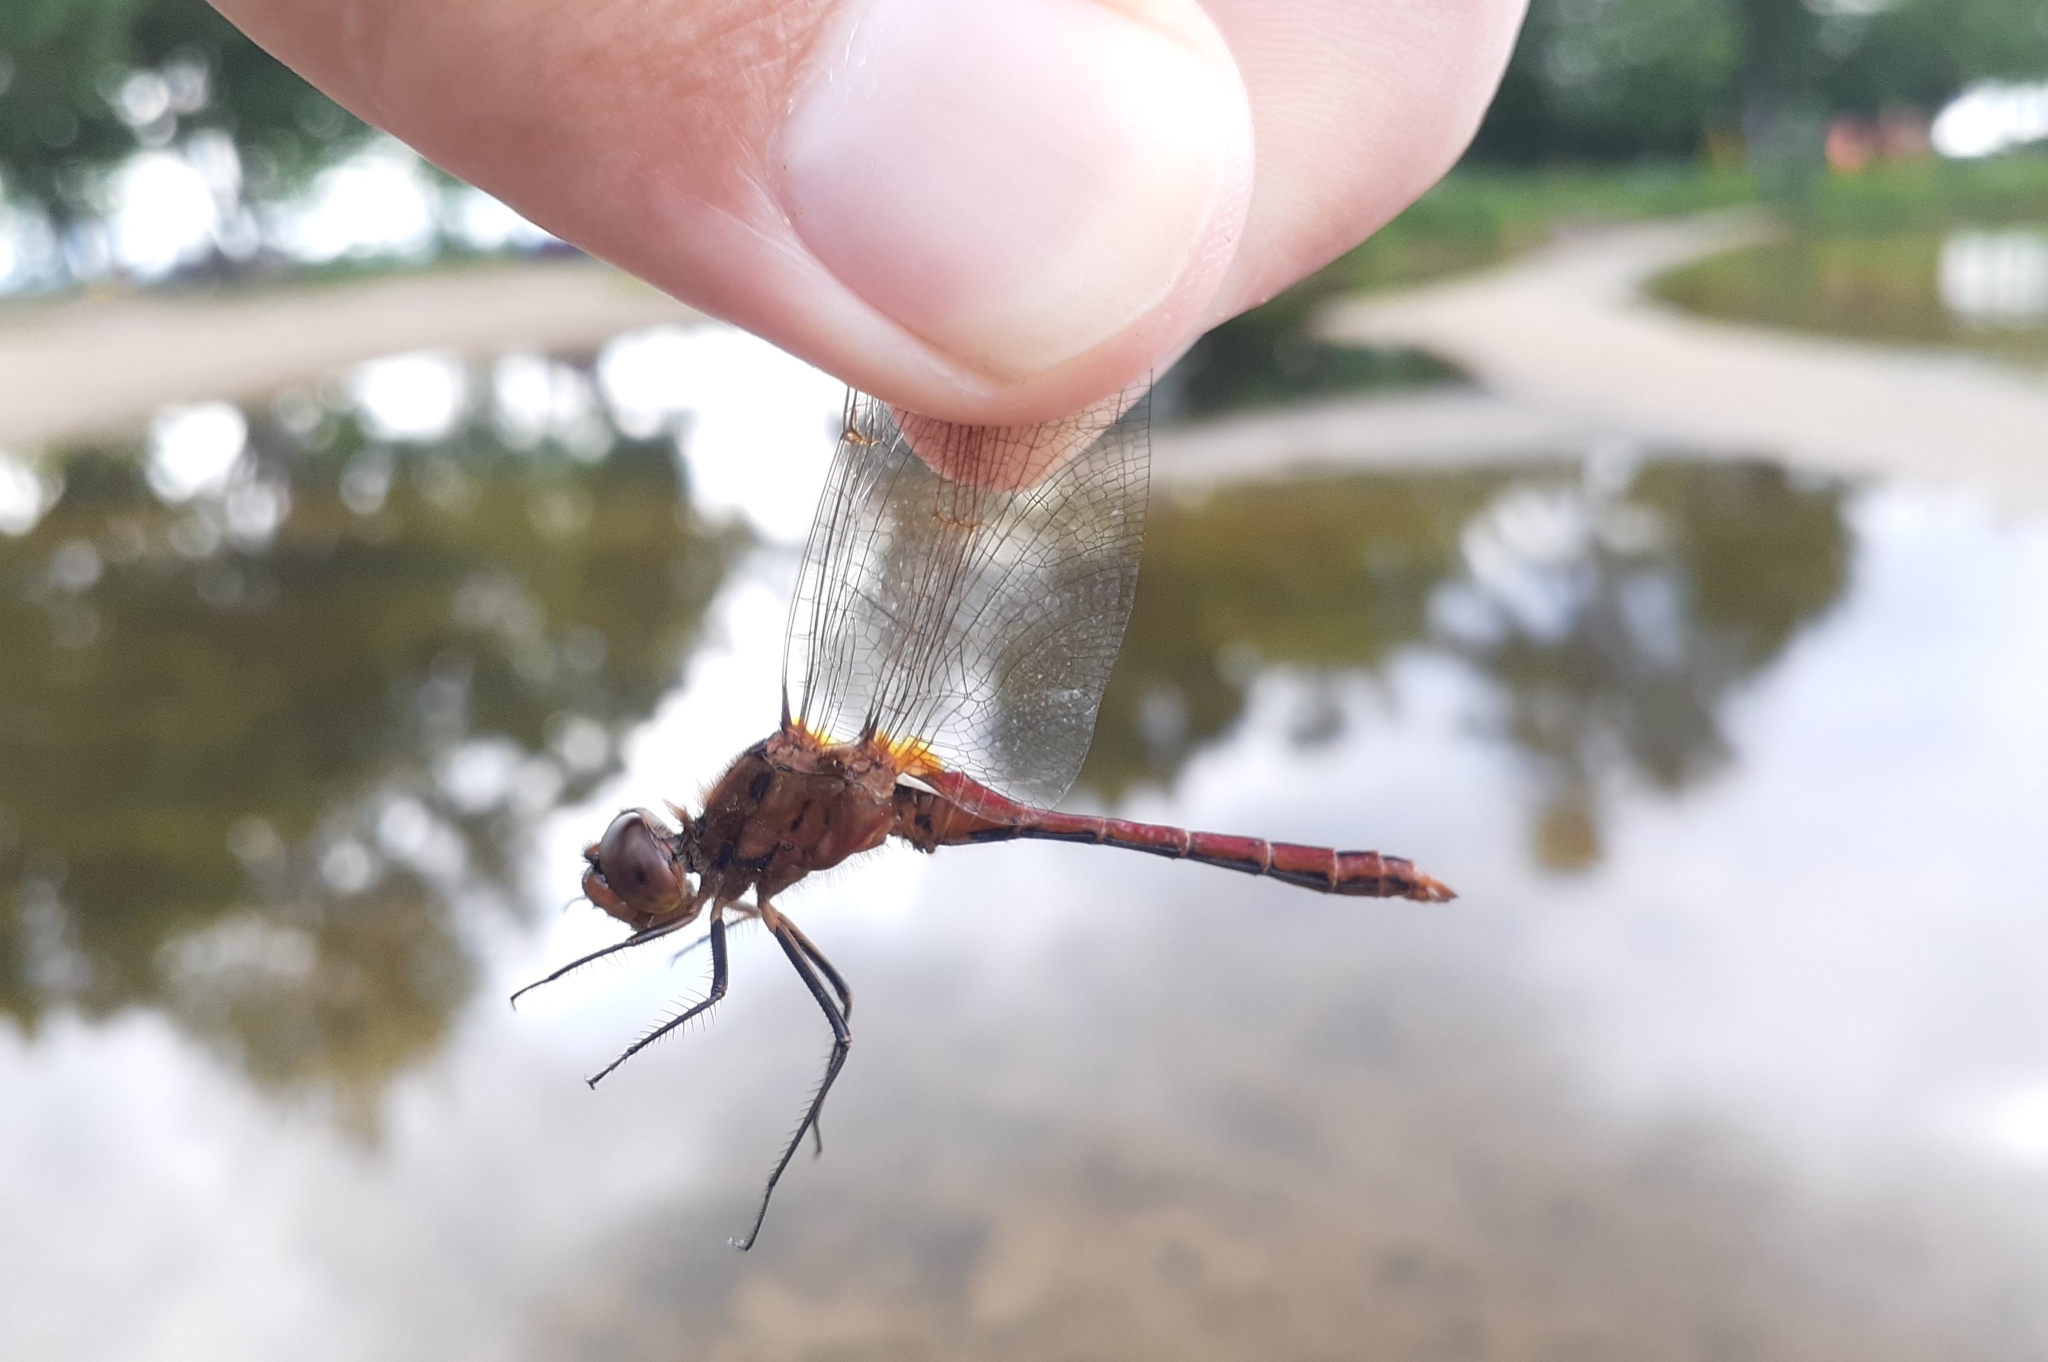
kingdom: Animalia
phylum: Arthropoda
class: Insecta
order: Odonata
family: Libellulidae
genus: Sympetrum
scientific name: Sympetrum costiferum
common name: Saffron-winged meadowhawk
